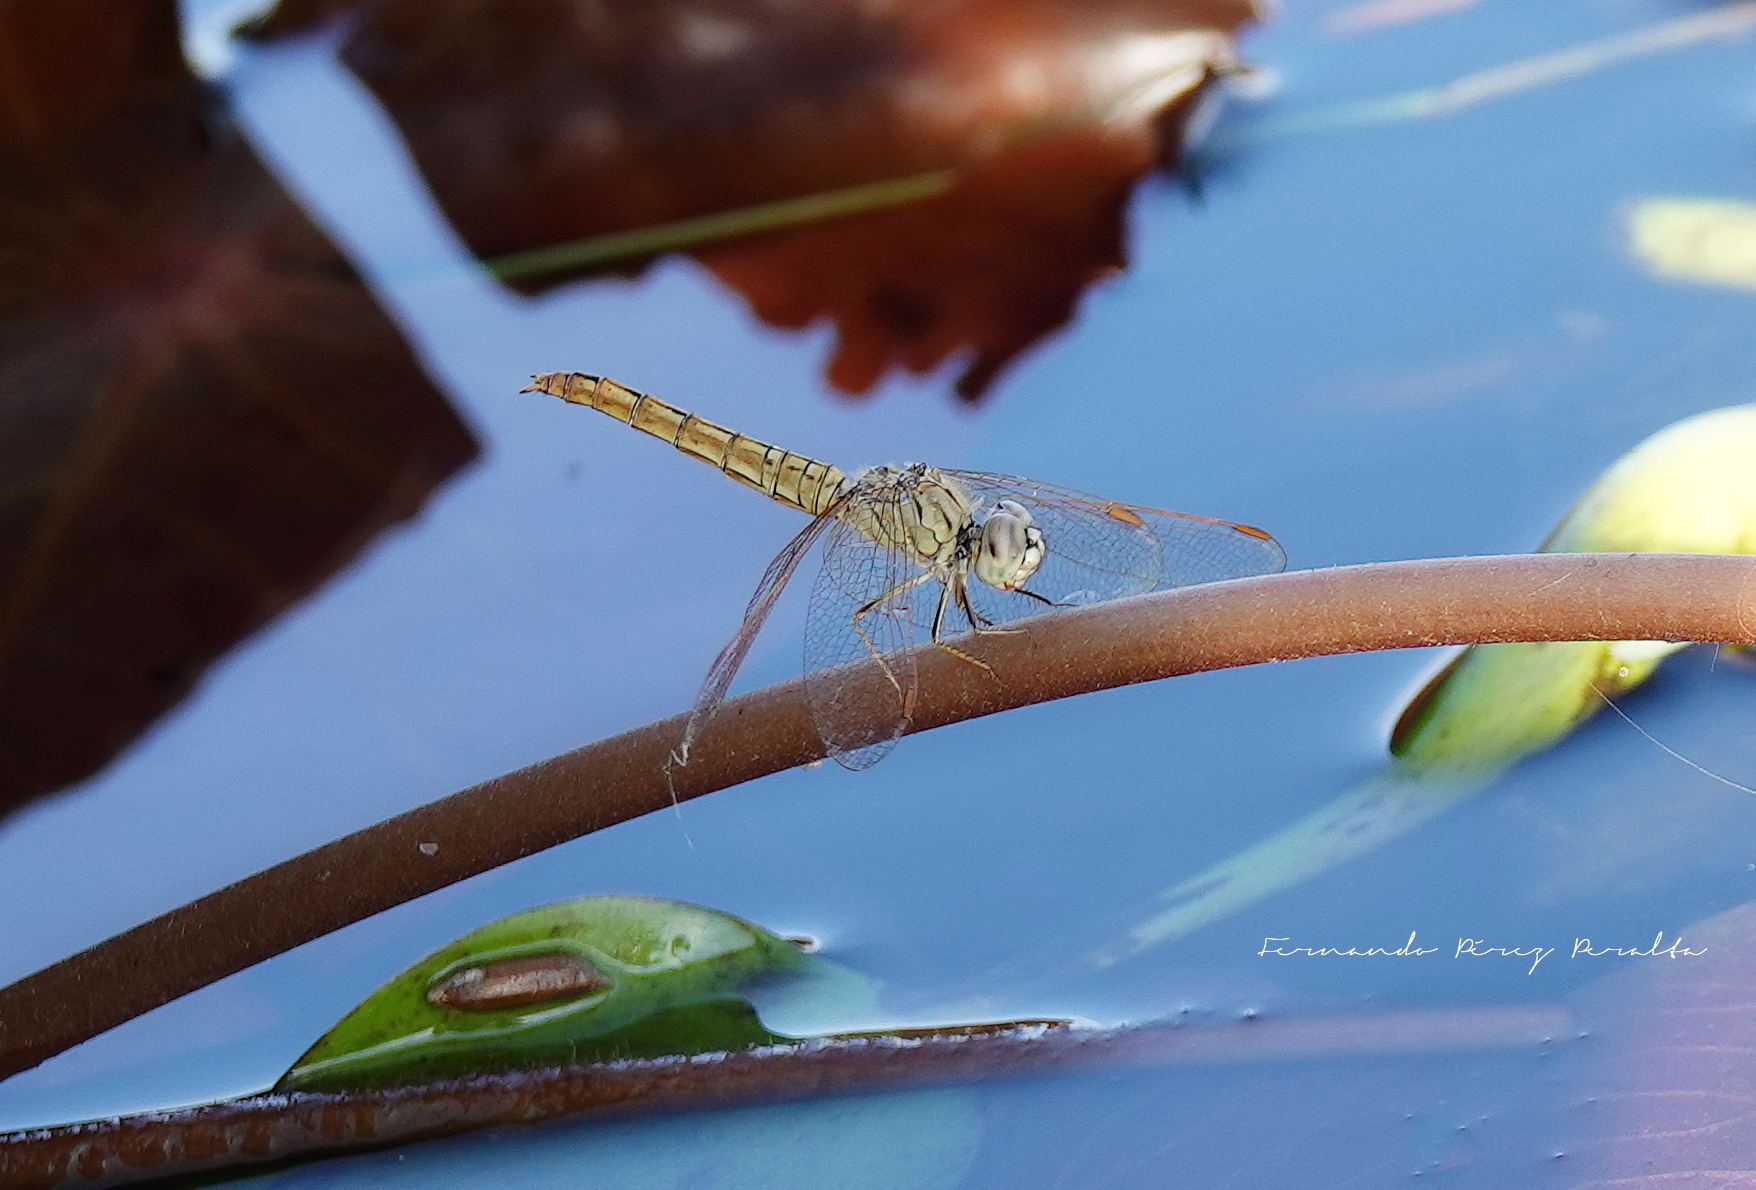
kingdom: Animalia
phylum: Arthropoda
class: Insecta
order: Odonata
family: Libellulidae
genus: Brachythemis
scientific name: Brachythemis contaminata
